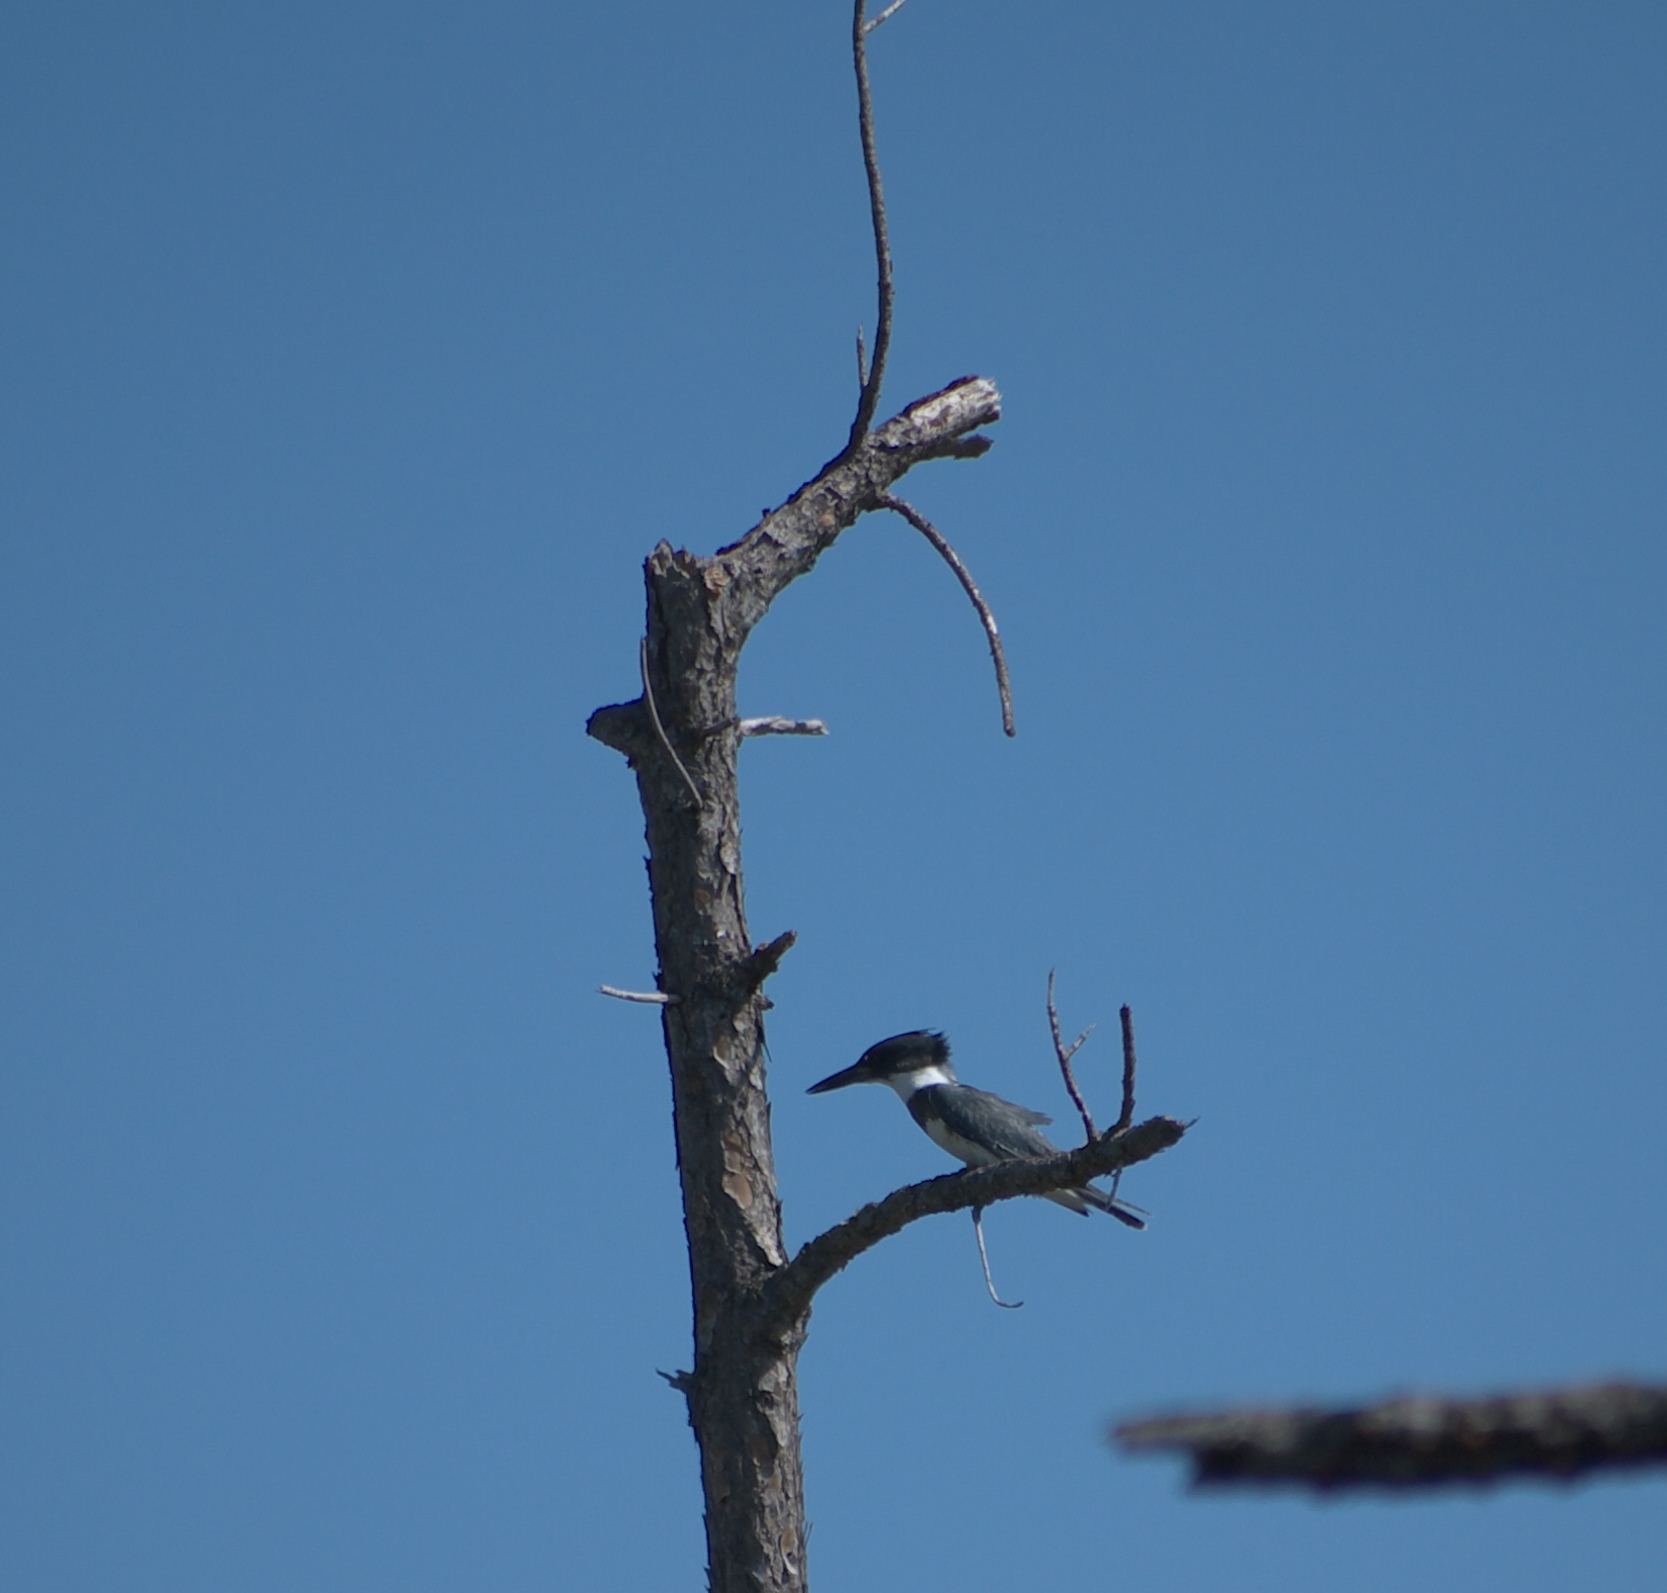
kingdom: Animalia
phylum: Chordata
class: Aves
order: Coraciiformes
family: Alcedinidae
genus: Megaceryle
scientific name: Megaceryle alcyon
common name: Belted kingfisher
